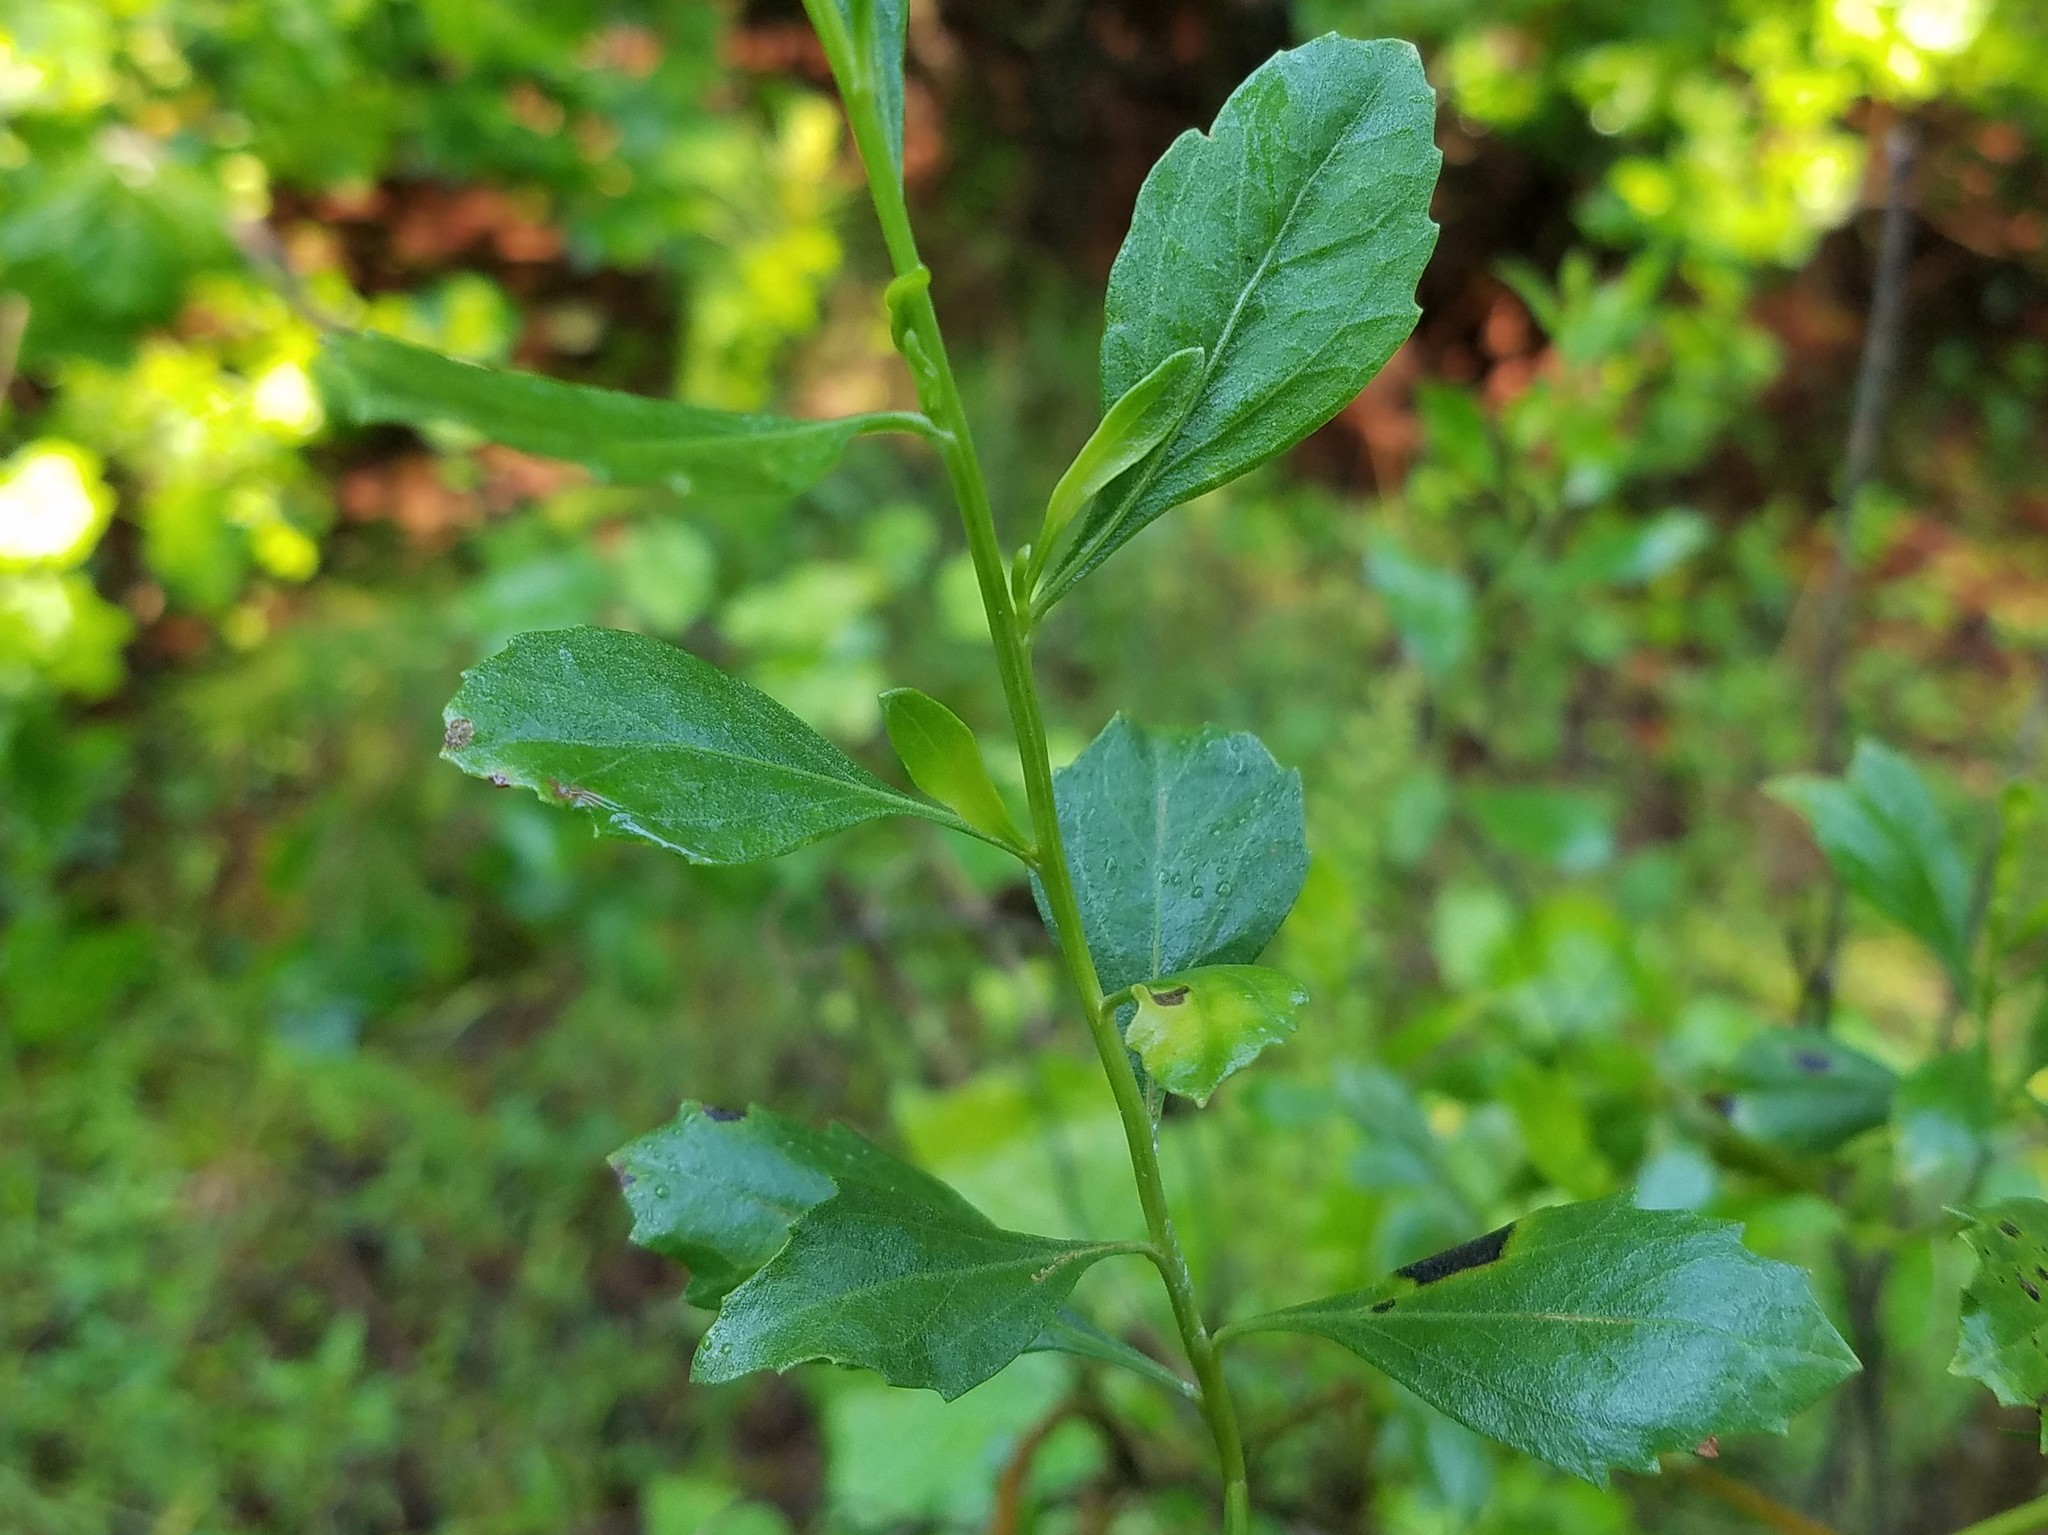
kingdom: Plantae
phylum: Tracheophyta
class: Magnoliopsida
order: Asterales
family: Asteraceae
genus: Baccharis
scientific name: Baccharis halimifolia
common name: Eastern baccharis
